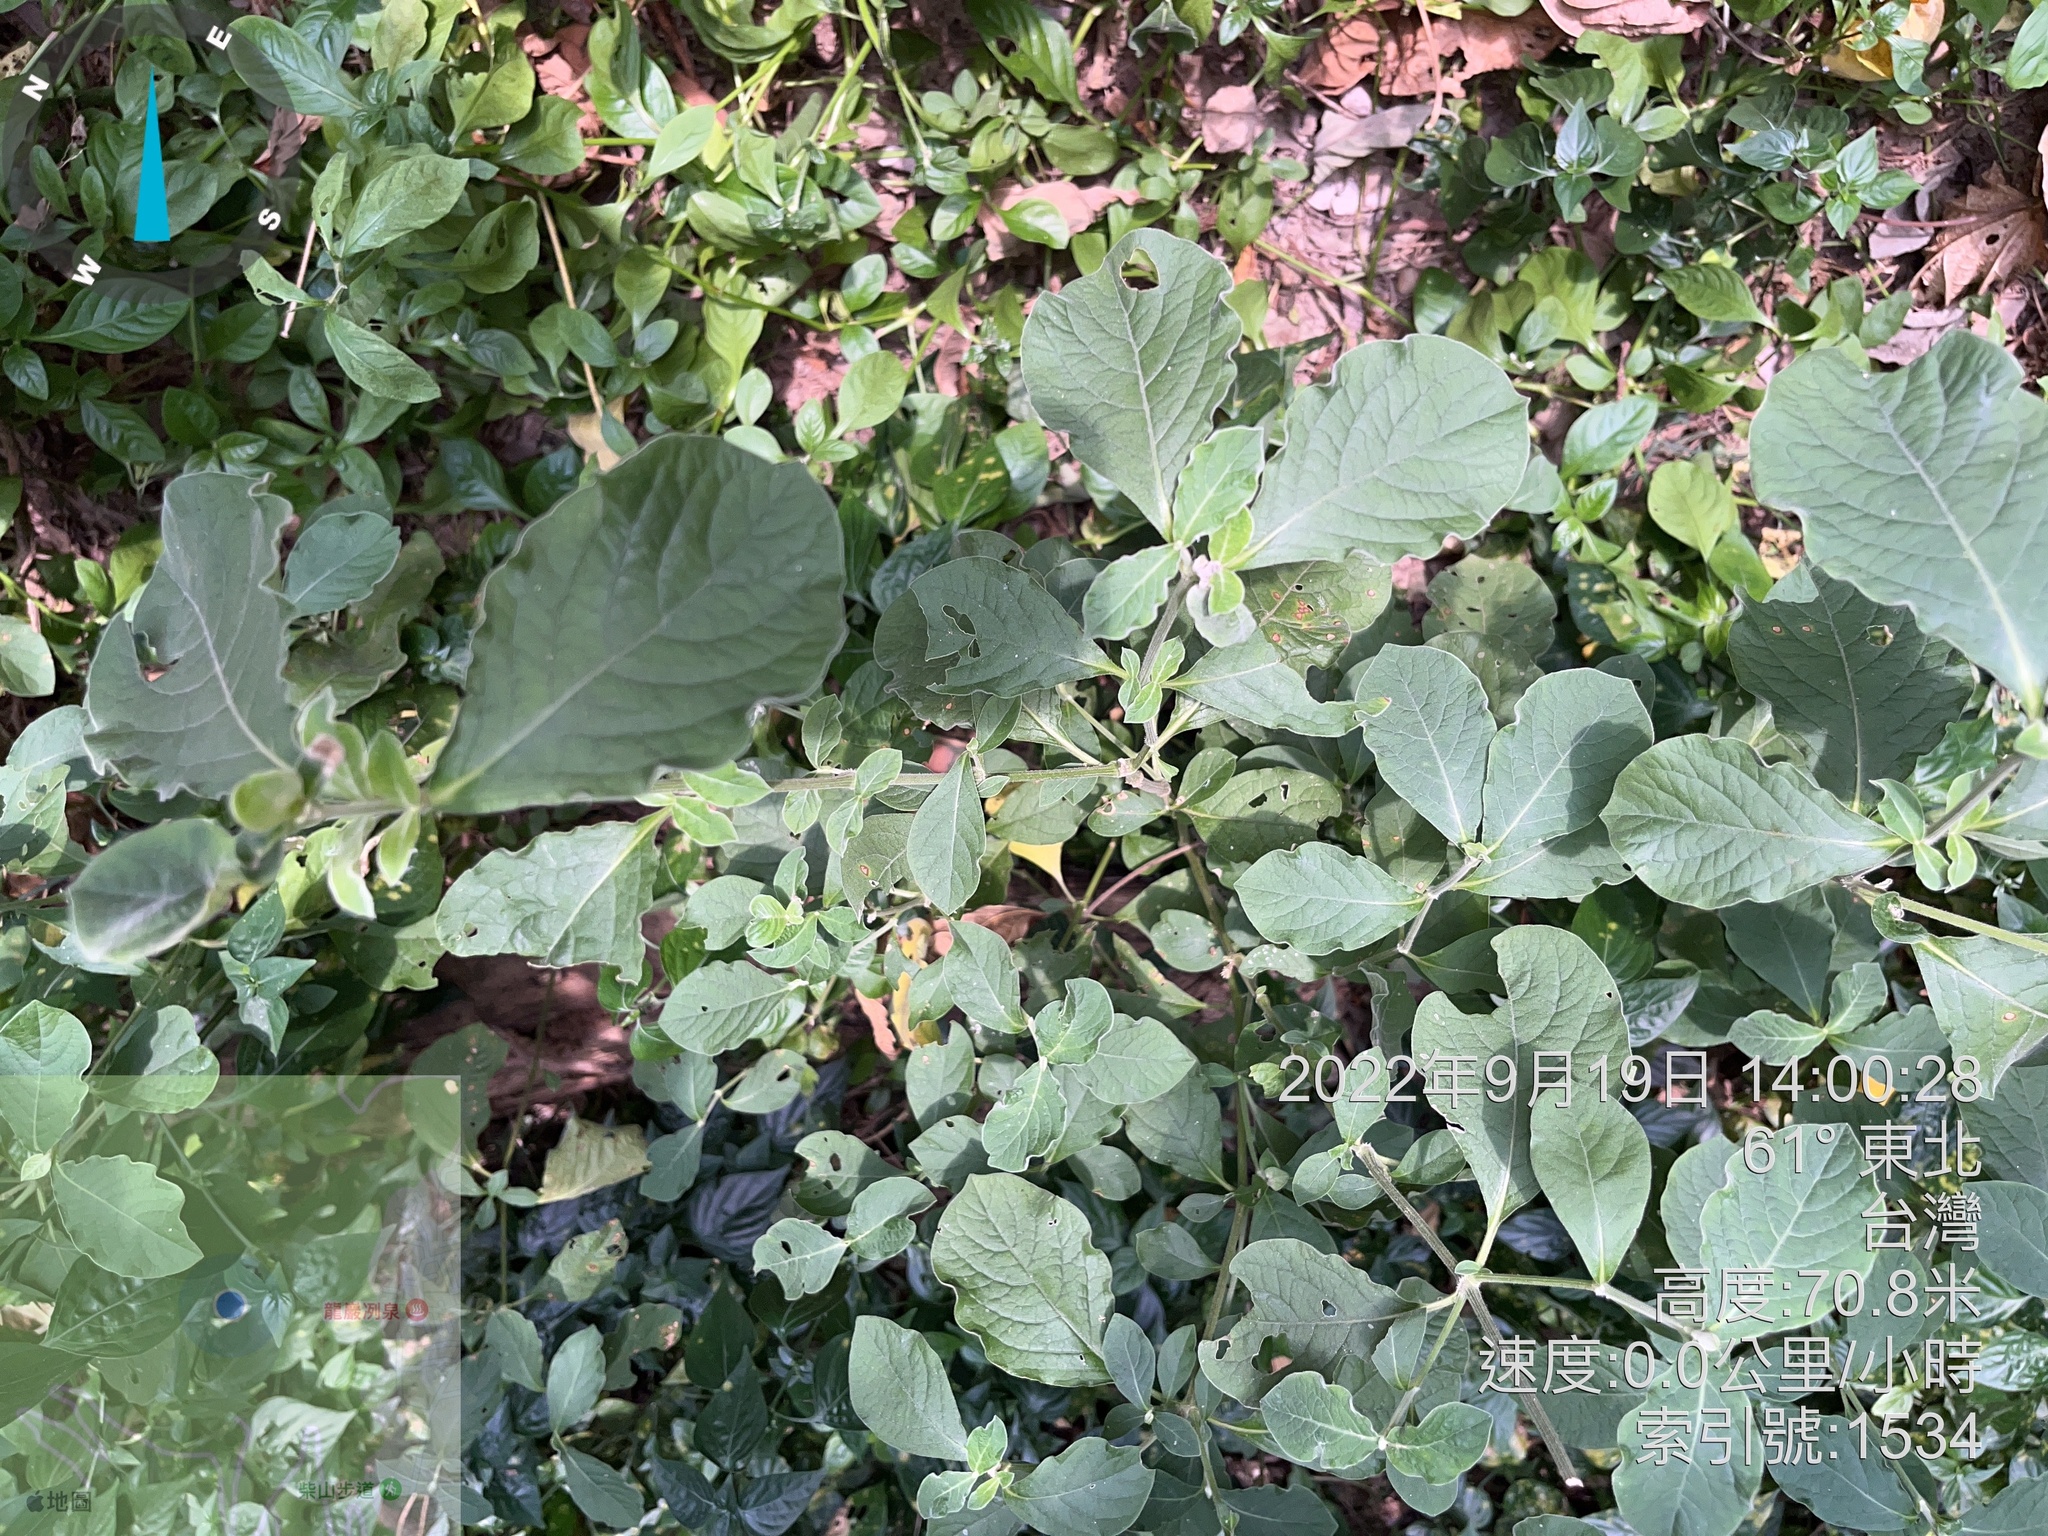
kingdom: Plantae
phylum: Tracheophyta
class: Magnoliopsida
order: Caryophyllales
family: Amaranthaceae
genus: Achyranthes
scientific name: Achyranthes aspera
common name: Devil's horsewhip
